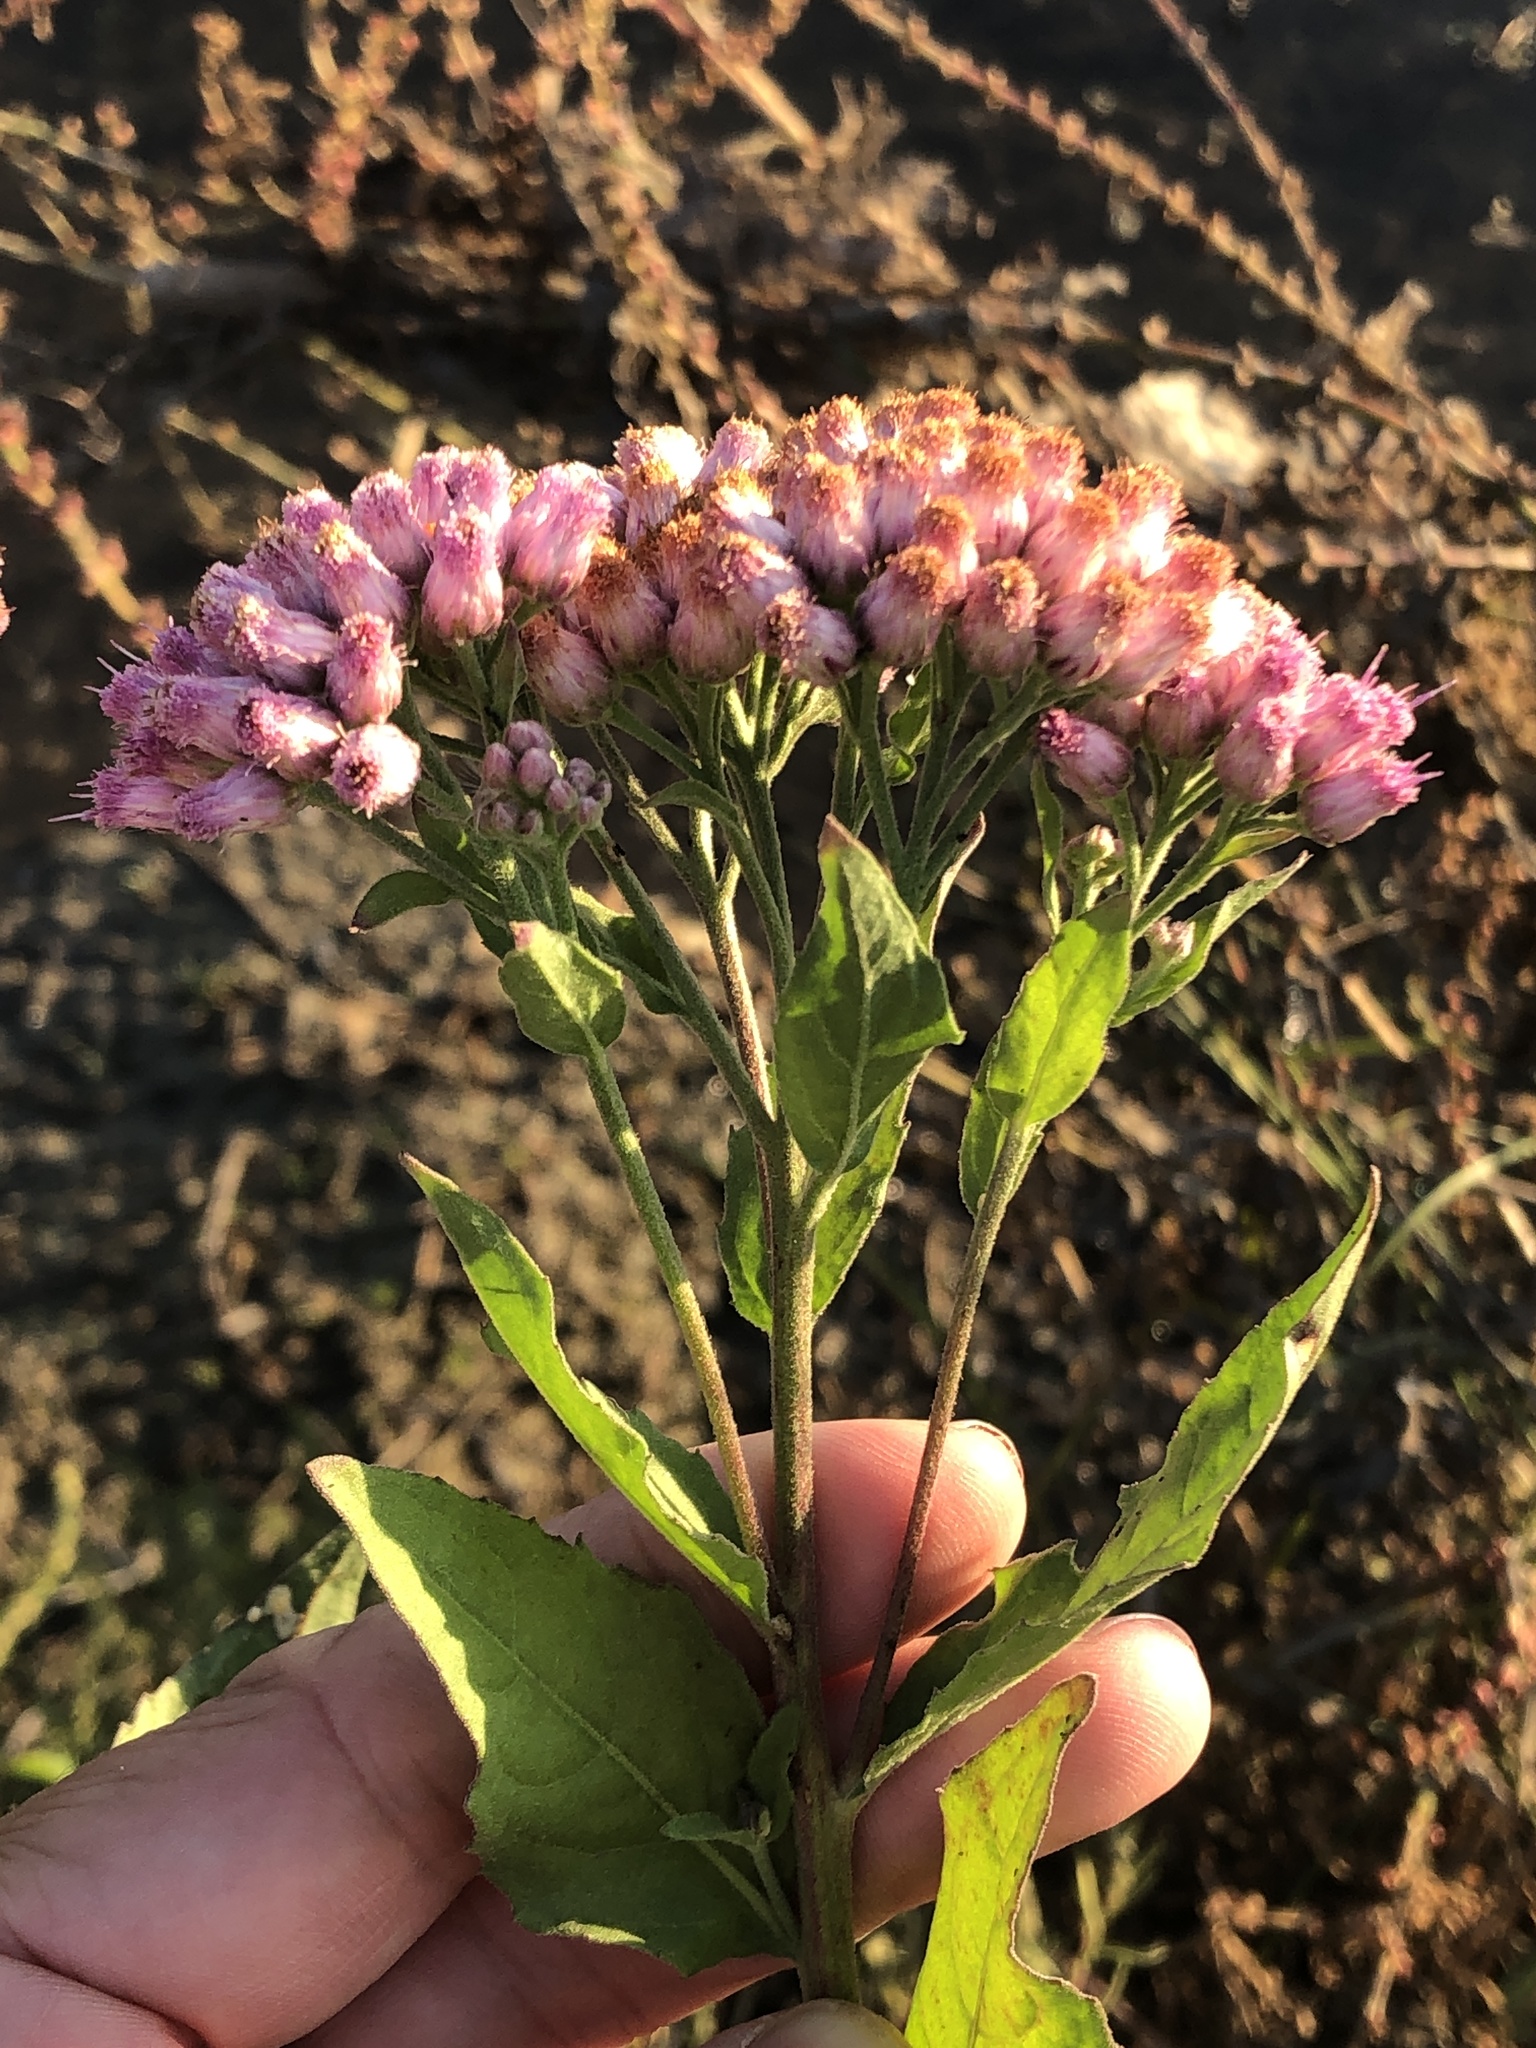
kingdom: Plantae
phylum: Tracheophyta
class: Magnoliopsida
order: Asterales
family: Asteraceae
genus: Pluchea
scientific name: Pluchea odorata
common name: Saltmarsh fleabane
